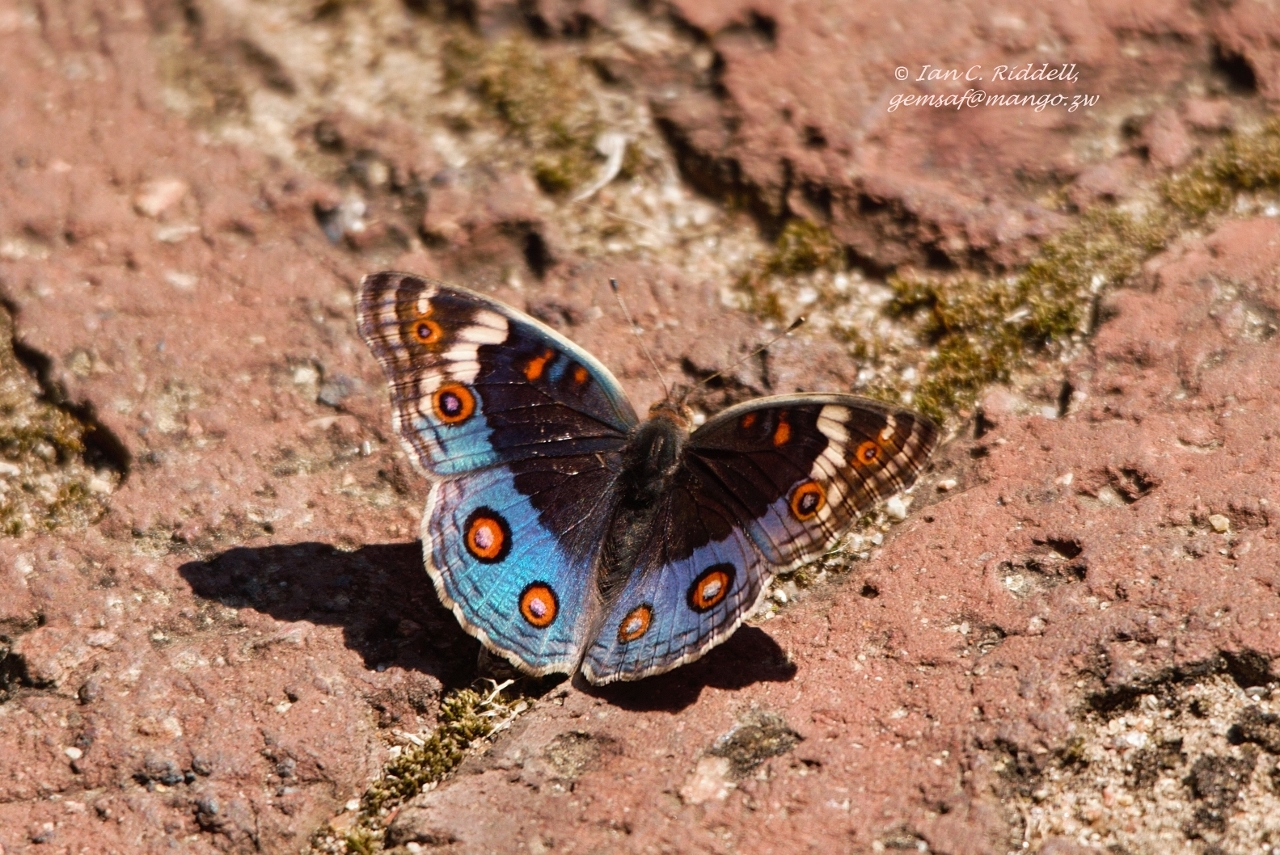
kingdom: Animalia
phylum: Arthropoda
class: Insecta
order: Lepidoptera
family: Nymphalidae
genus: Junonia
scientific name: Junonia orithya
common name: Blue pansy
